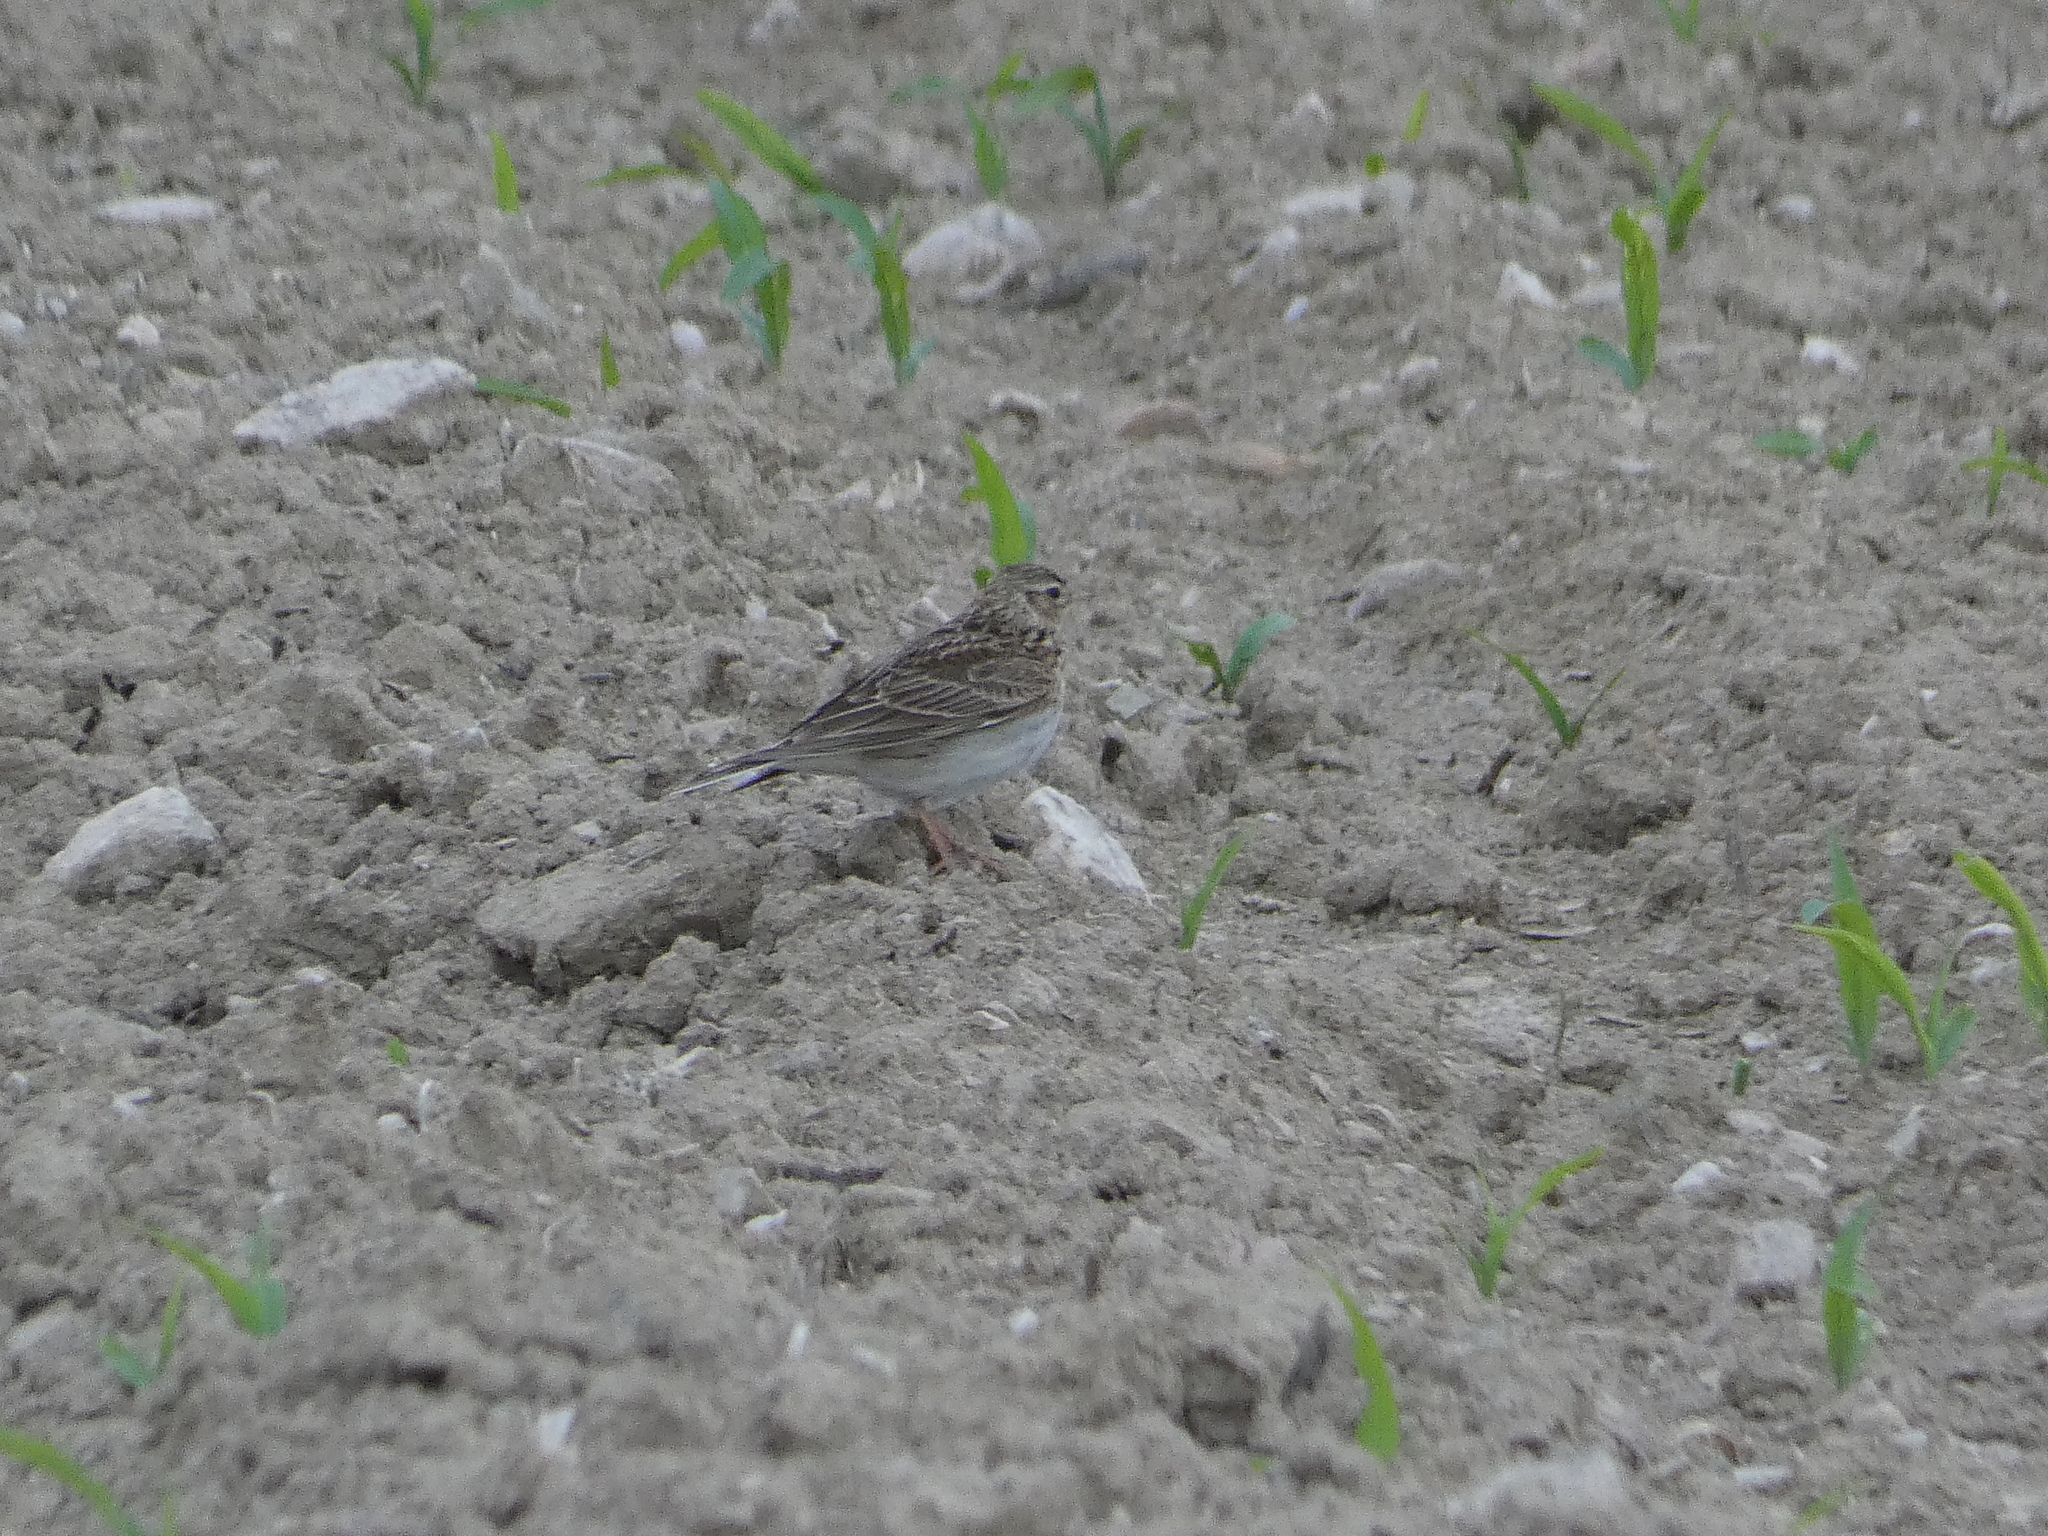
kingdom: Animalia
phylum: Chordata
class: Aves
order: Passeriformes
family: Alaudidae
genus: Alauda
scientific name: Alauda arvensis
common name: Eurasian skylark
